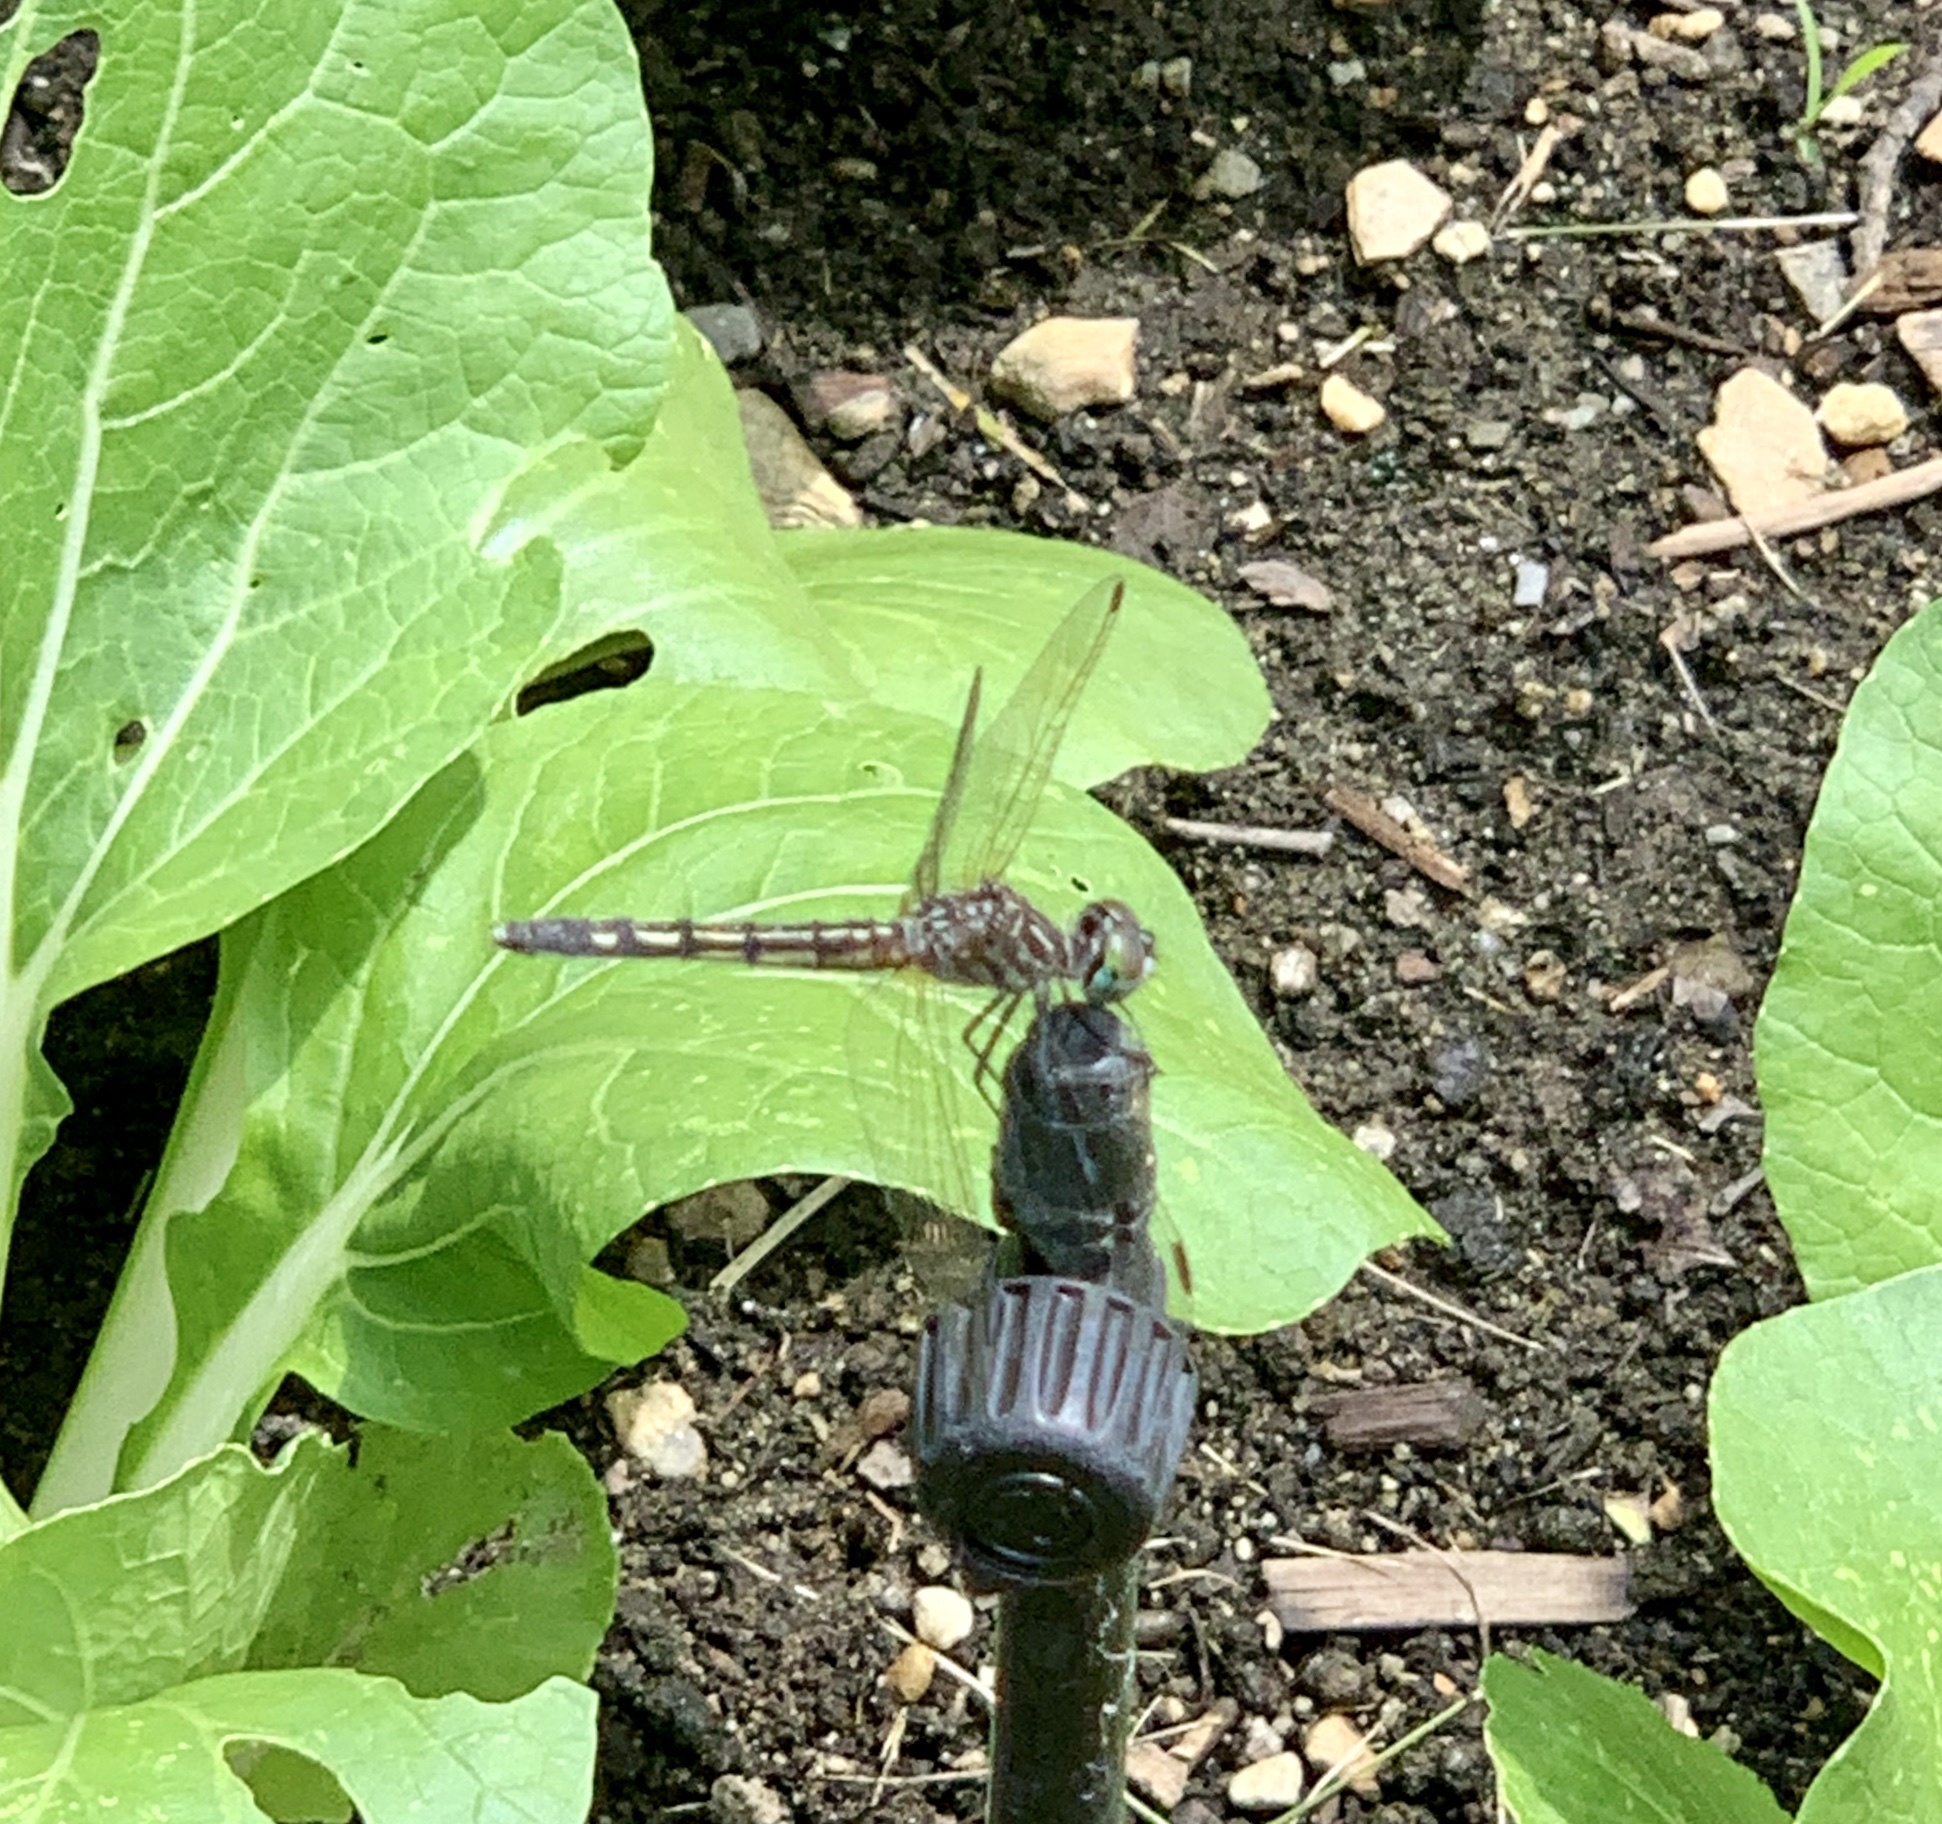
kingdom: Animalia
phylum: Arthropoda
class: Insecta
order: Odonata
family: Libellulidae
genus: Pachydiplax
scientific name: Pachydiplax longipennis
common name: Blue dasher
